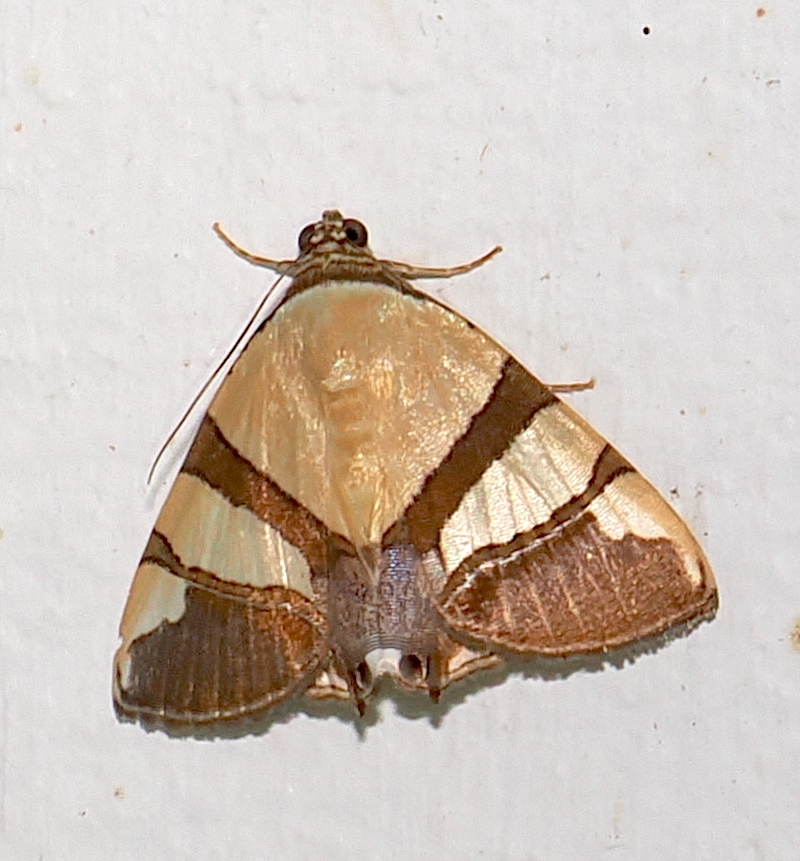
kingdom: Animalia
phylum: Arthropoda
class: Insecta
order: Lepidoptera
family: Erebidae
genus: Eulepidotis
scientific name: Eulepidotis julianata
